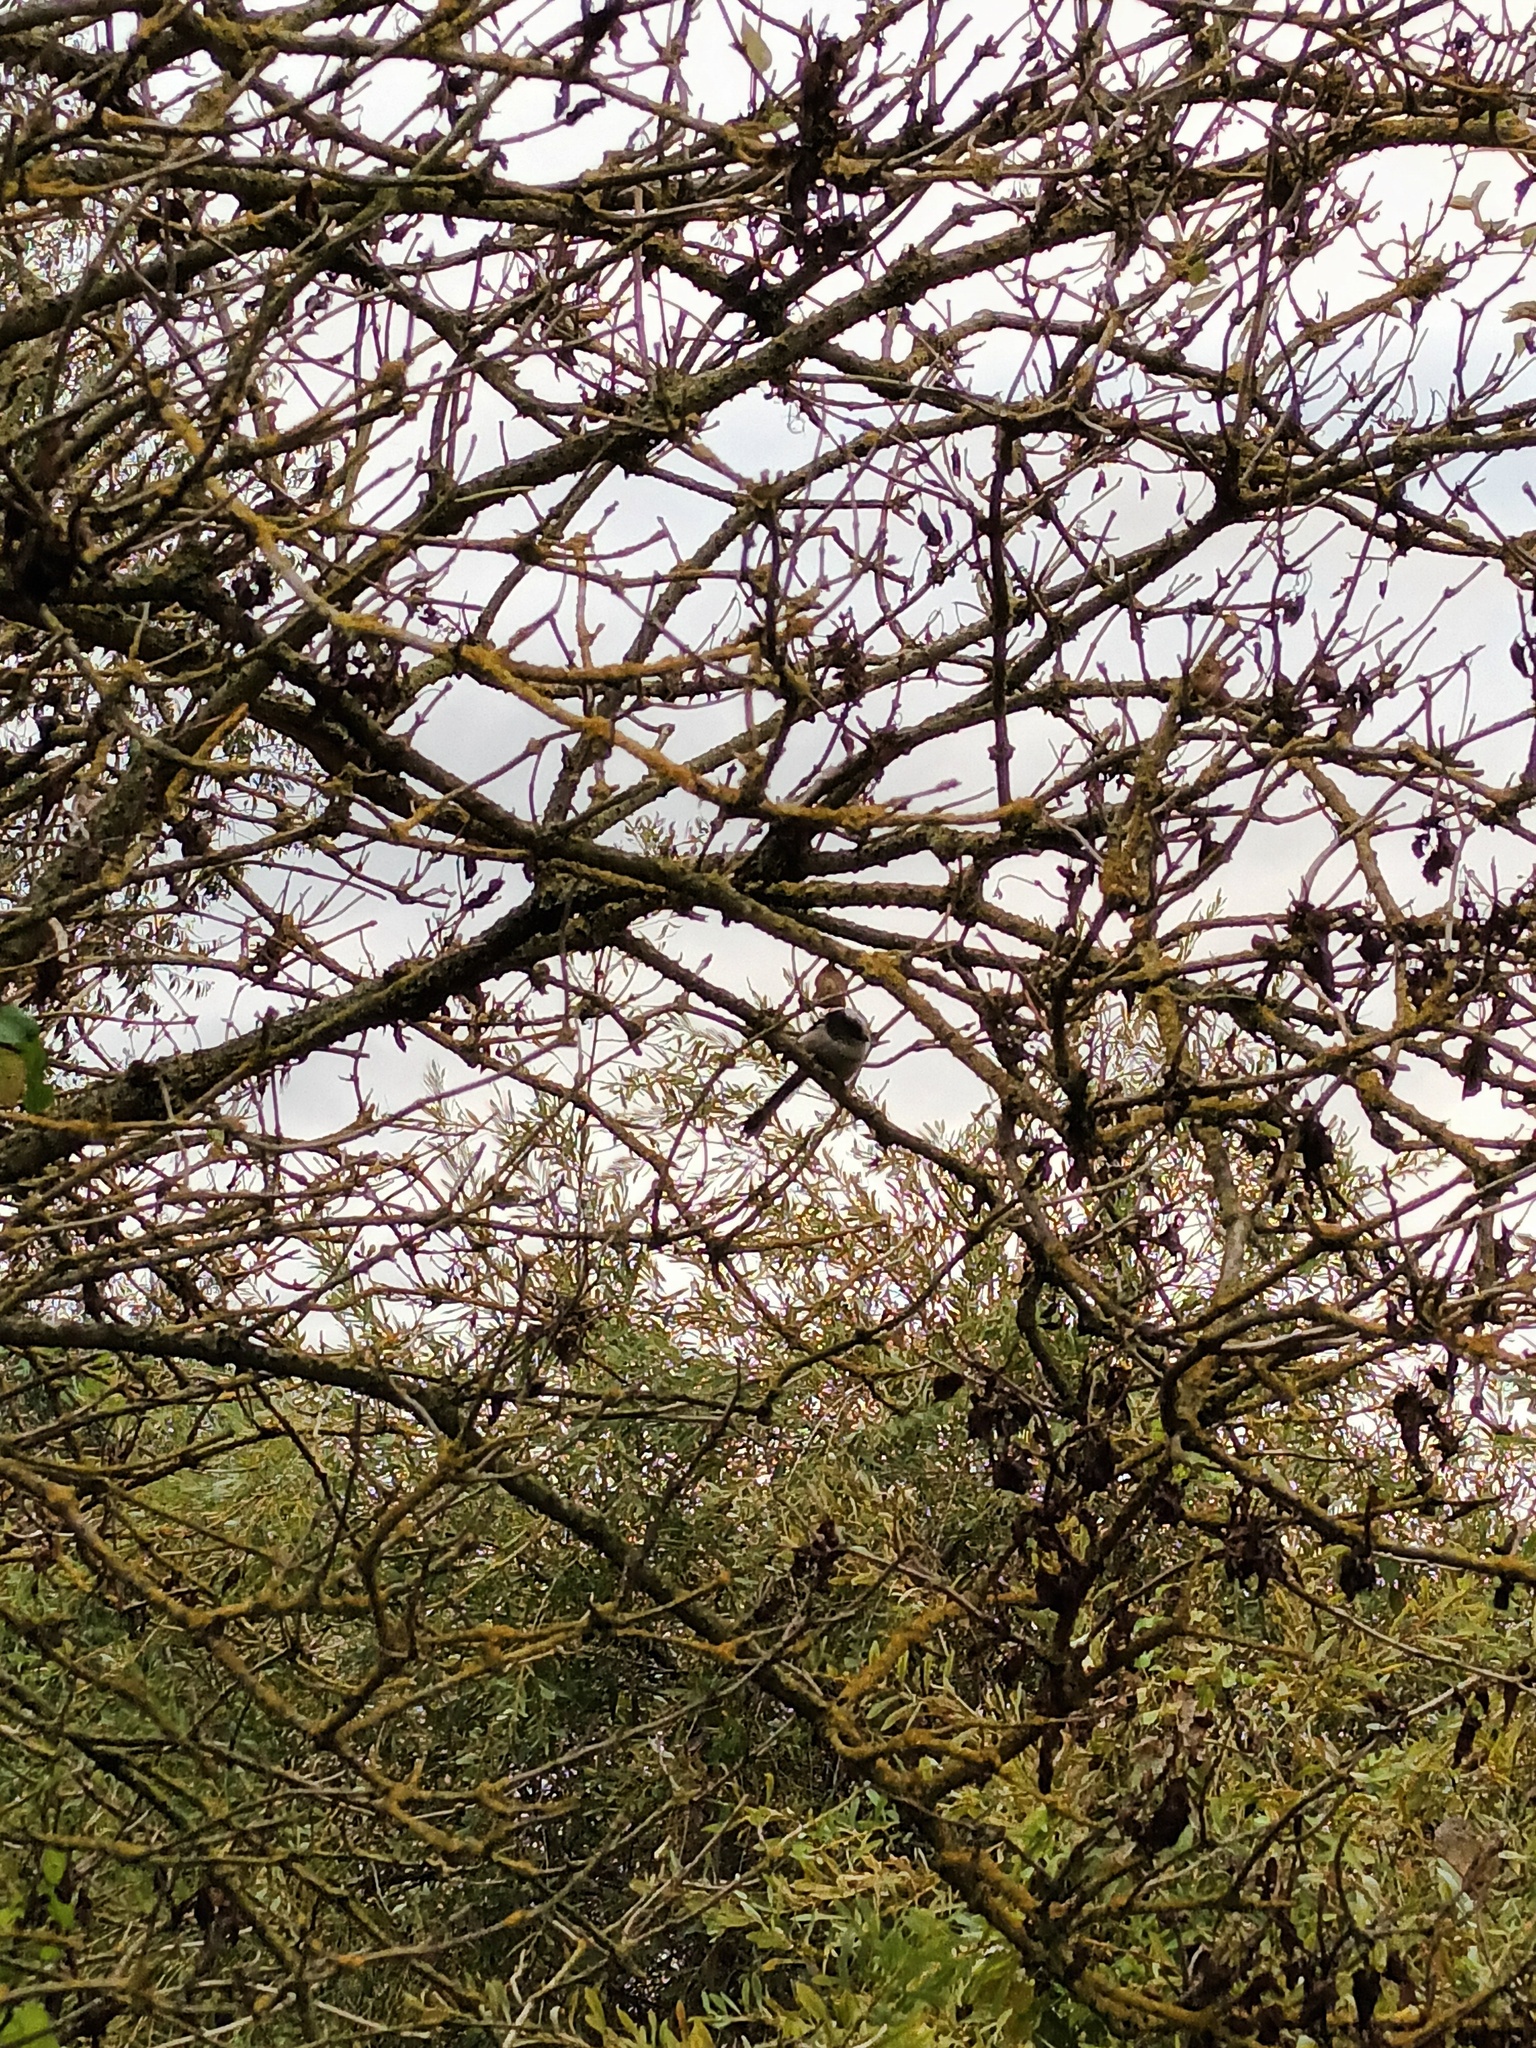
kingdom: Animalia
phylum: Chordata
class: Aves
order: Passeriformes
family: Aegithalidae
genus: Aegithalos
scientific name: Aegithalos caudatus
